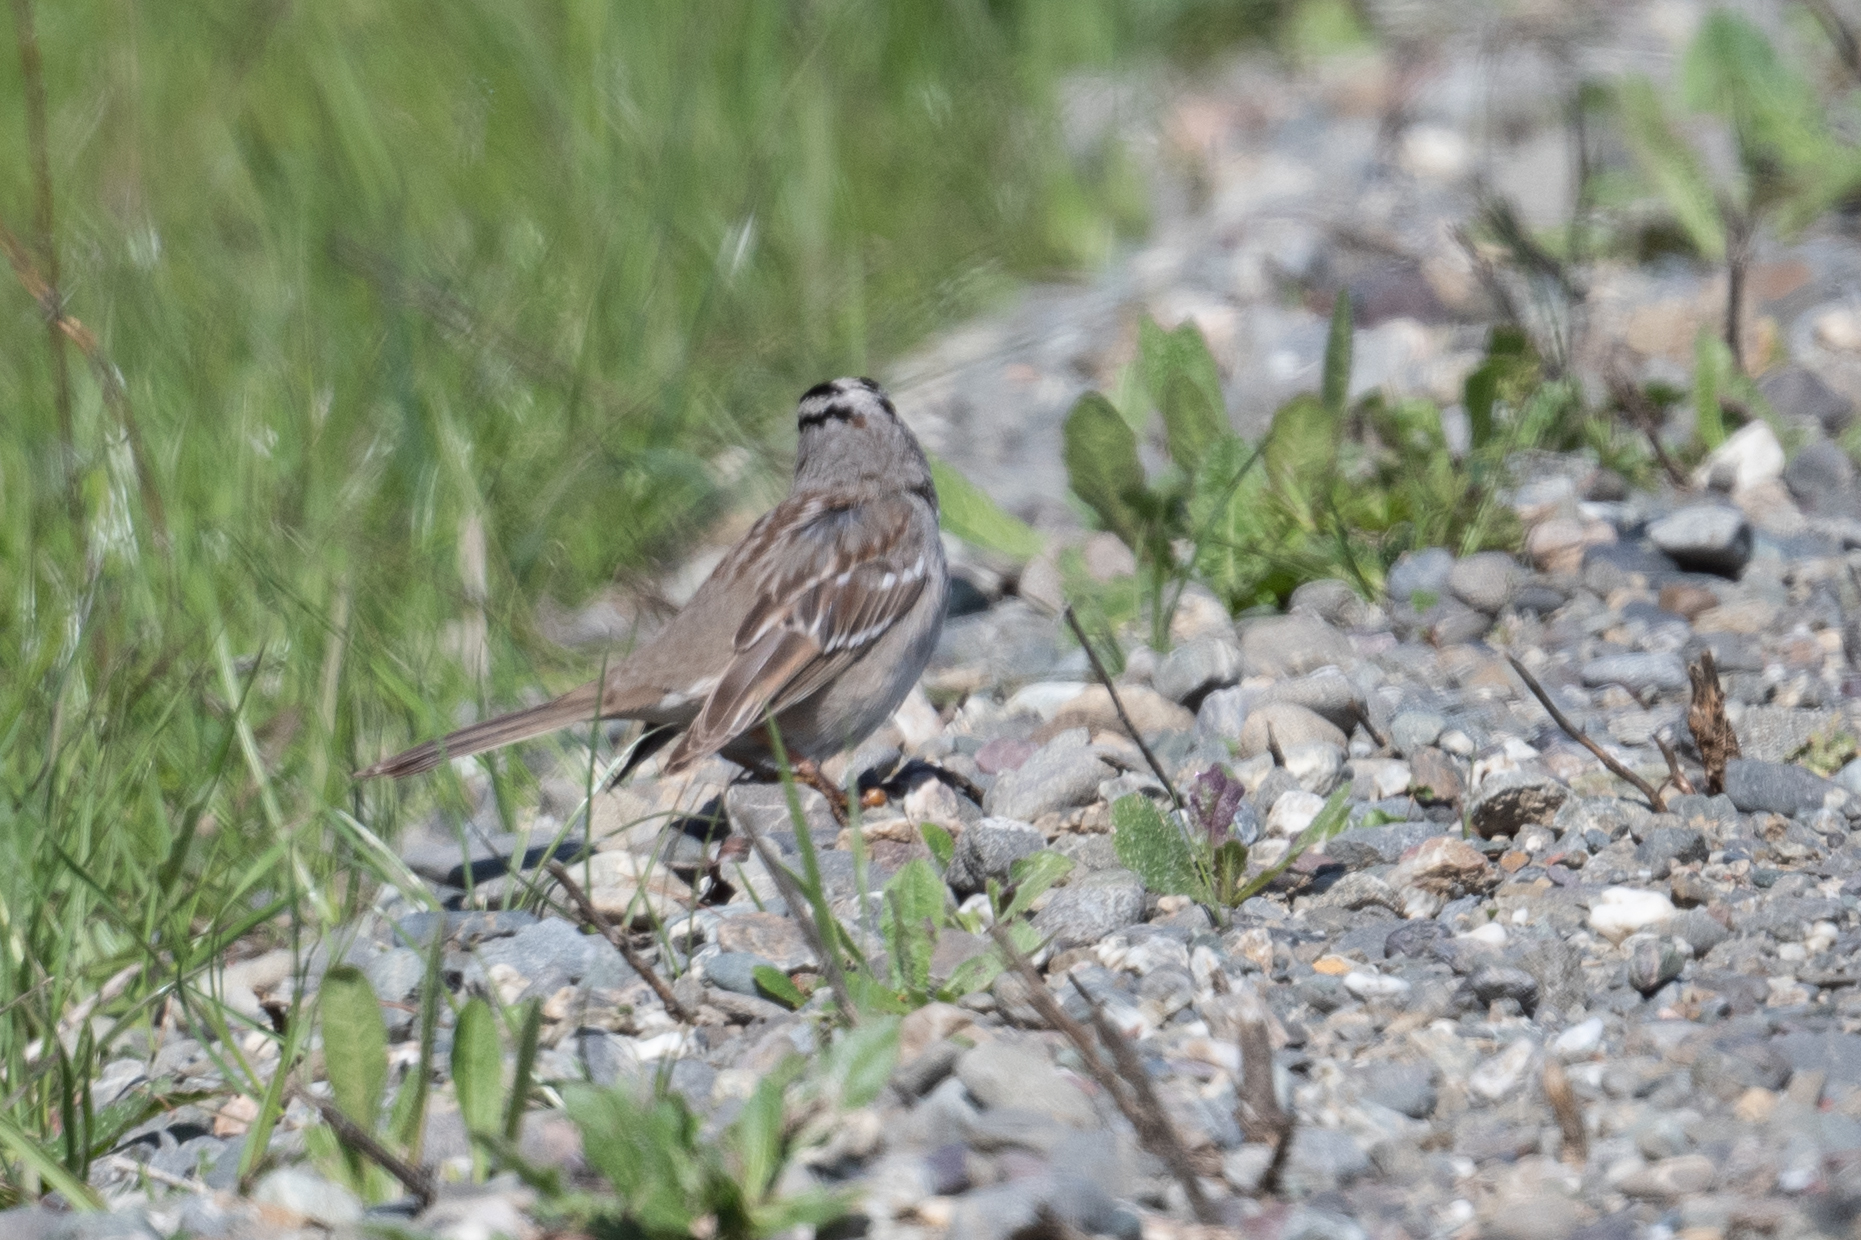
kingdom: Animalia
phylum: Chordata
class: Aves
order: Passeriformes
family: Passerellidae
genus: Zonotrichia
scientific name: Zonotrichia leucophrys
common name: White-crowned sparrow
